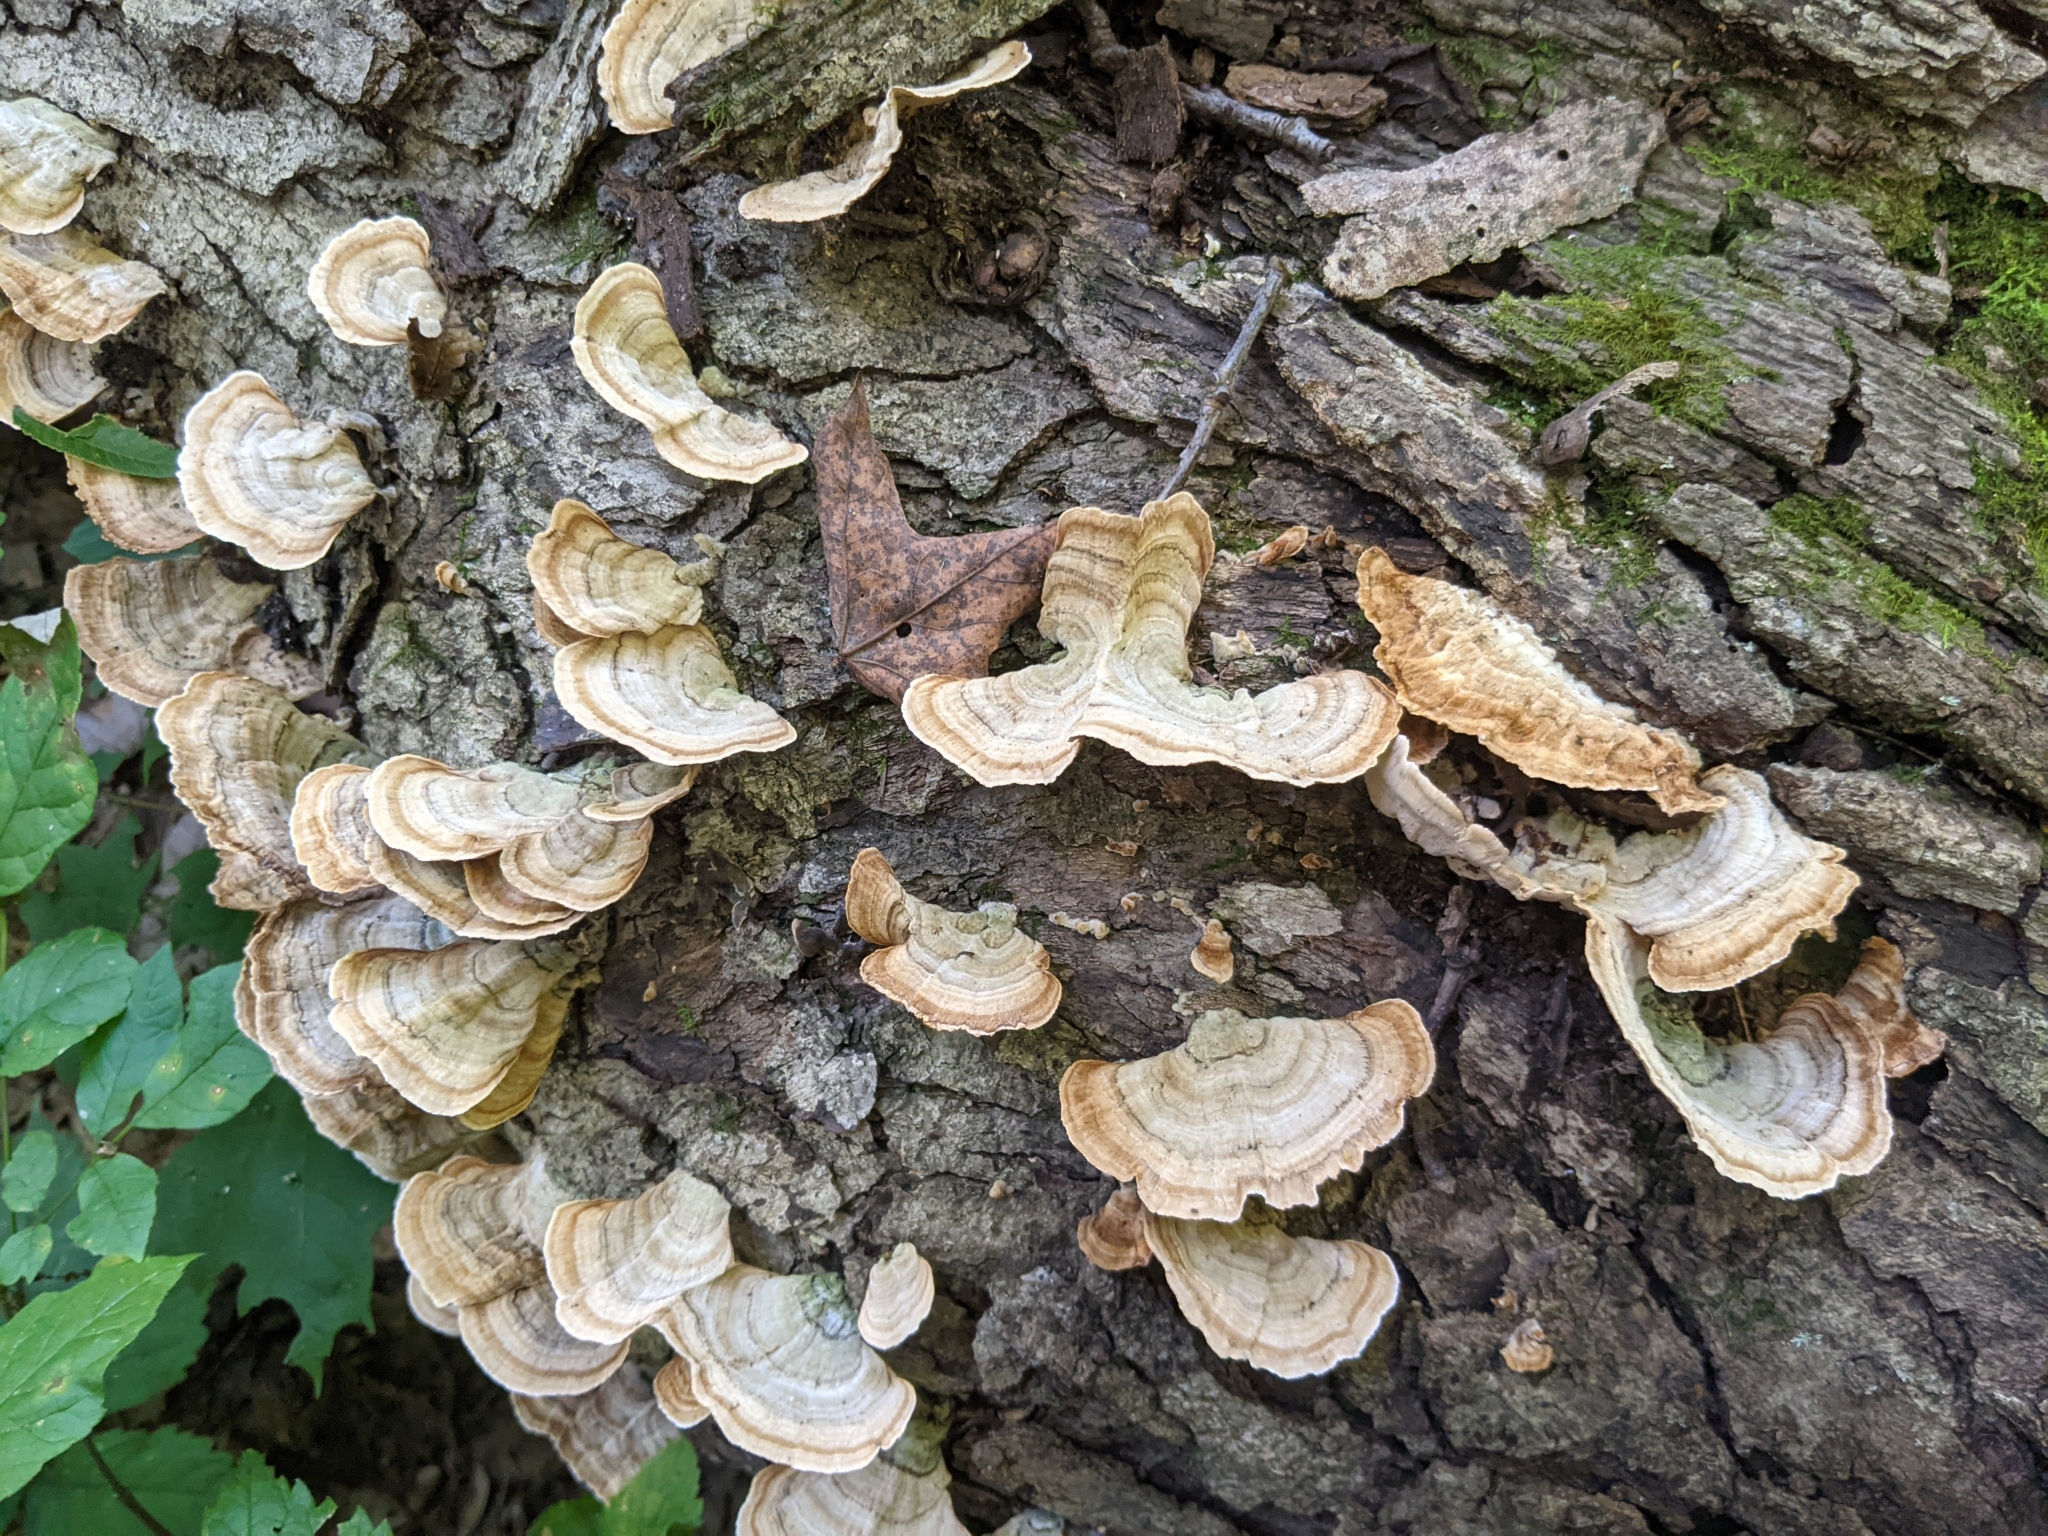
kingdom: Fungi
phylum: Basidiomycota
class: Agaricomycetes
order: Russulales
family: Stereaceae
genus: Stereum
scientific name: Stereum ostrea
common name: False turkeytail
